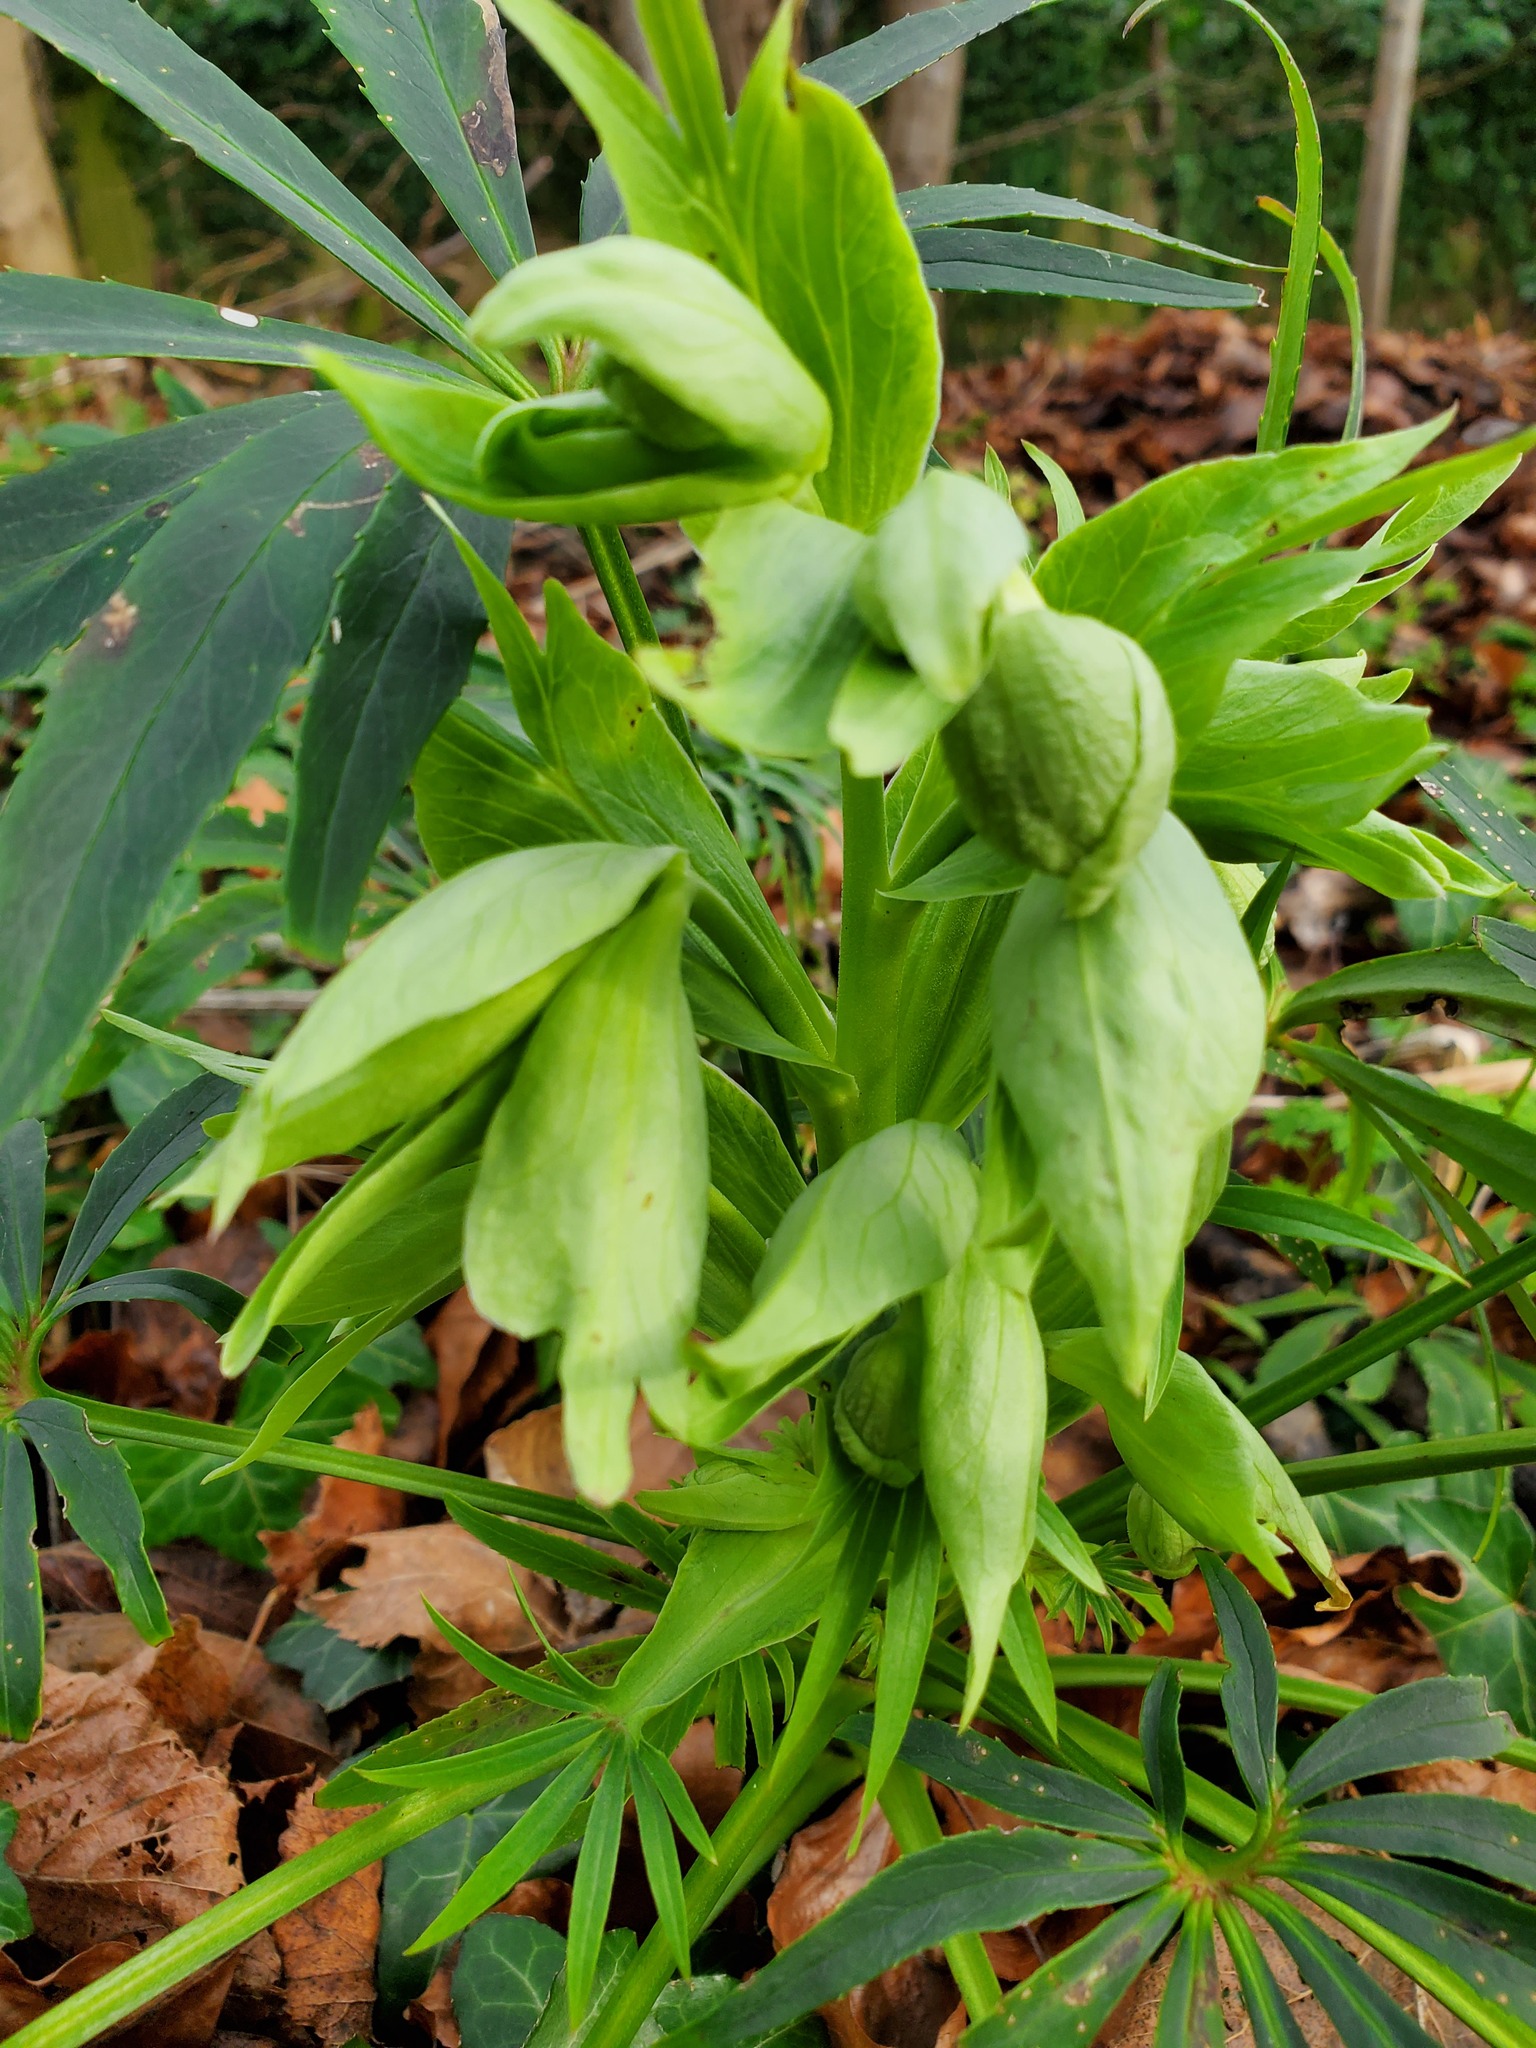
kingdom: Plantae
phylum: Tracheophyta
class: Magnoliopsida
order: Ranunculales
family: Ranunculaceae
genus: Helleborus
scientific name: Helleborus foetidus
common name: Stinking hellebore
